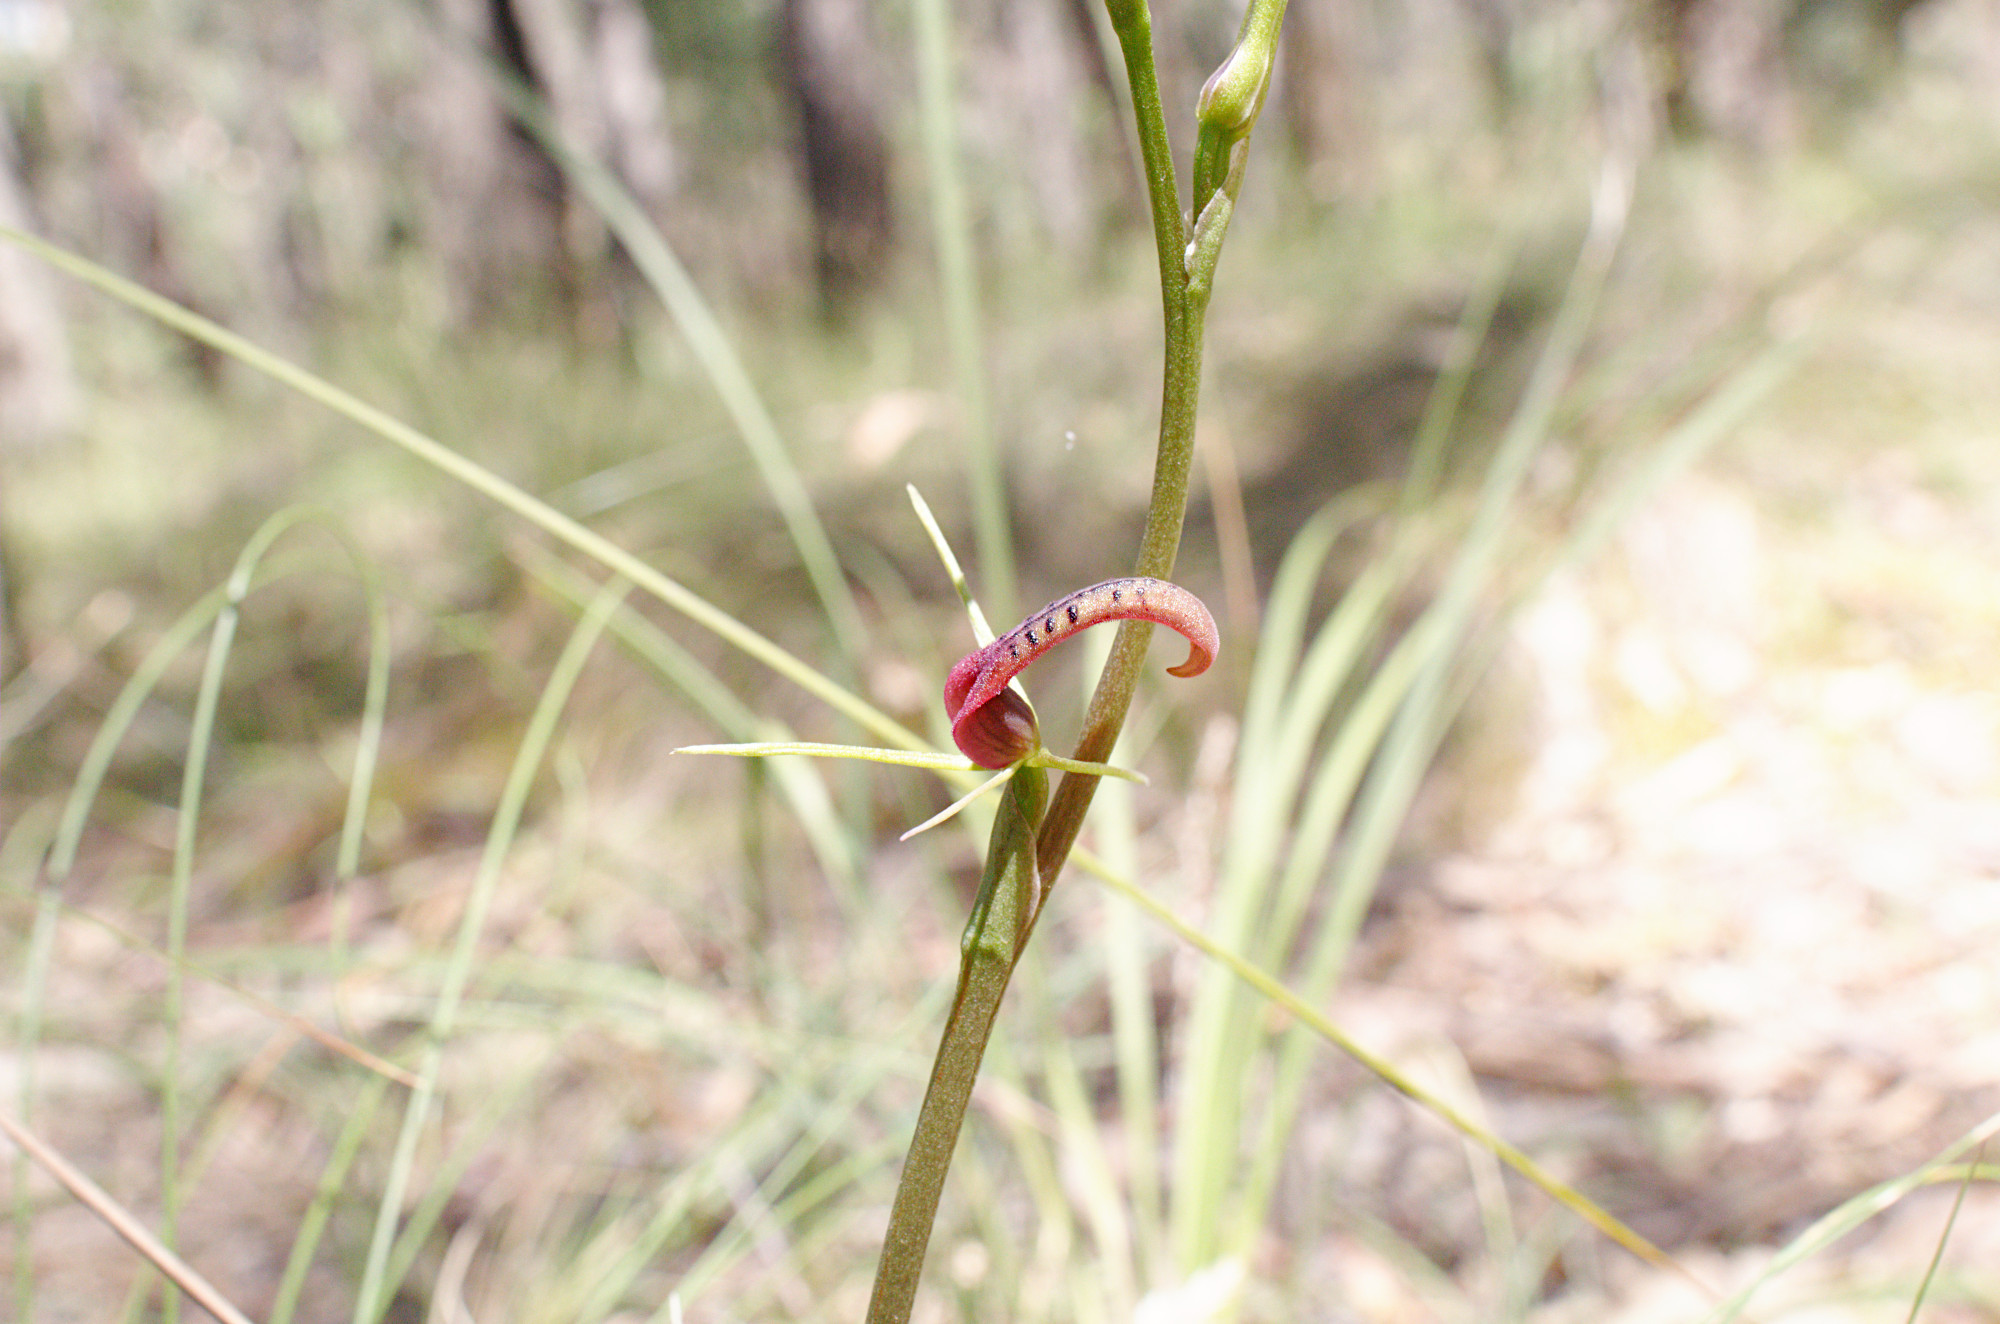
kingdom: Plantae
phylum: Tracheophyta
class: Liliopsida
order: Asparagales
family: Orchidaceae
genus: Cryptostylis
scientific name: Cryptostylis leptochila
